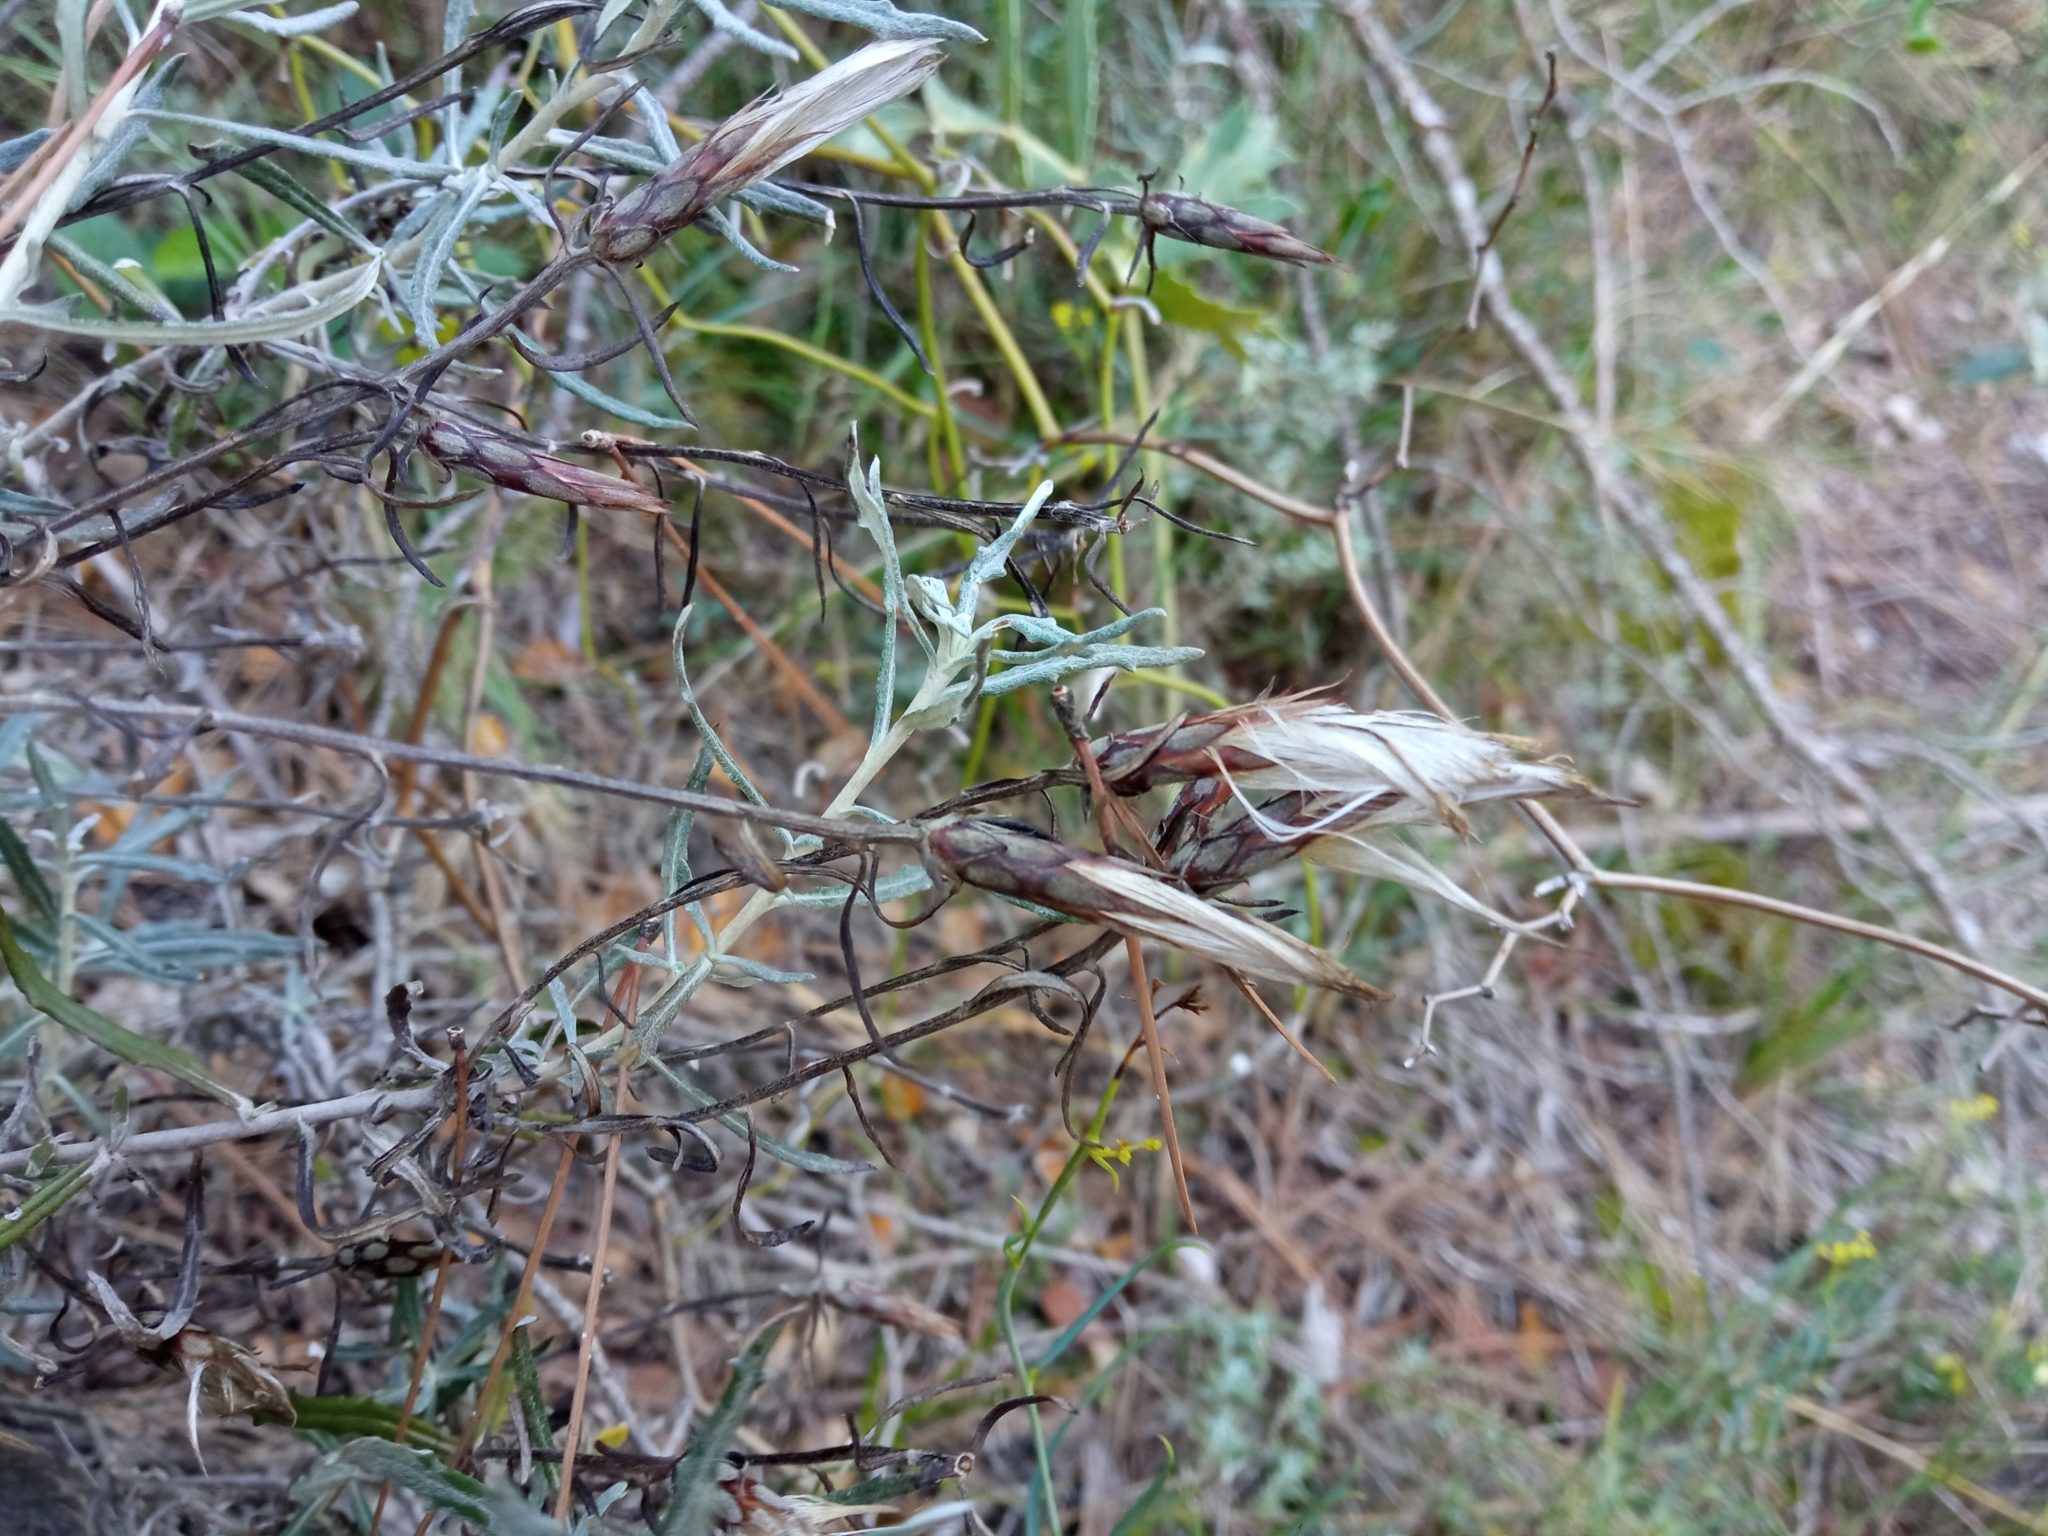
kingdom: Plantae
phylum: Tracheophyta
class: Magnoliopsida
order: Asterales
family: Asteraceae
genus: Staehelina
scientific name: Staehelina dubia
